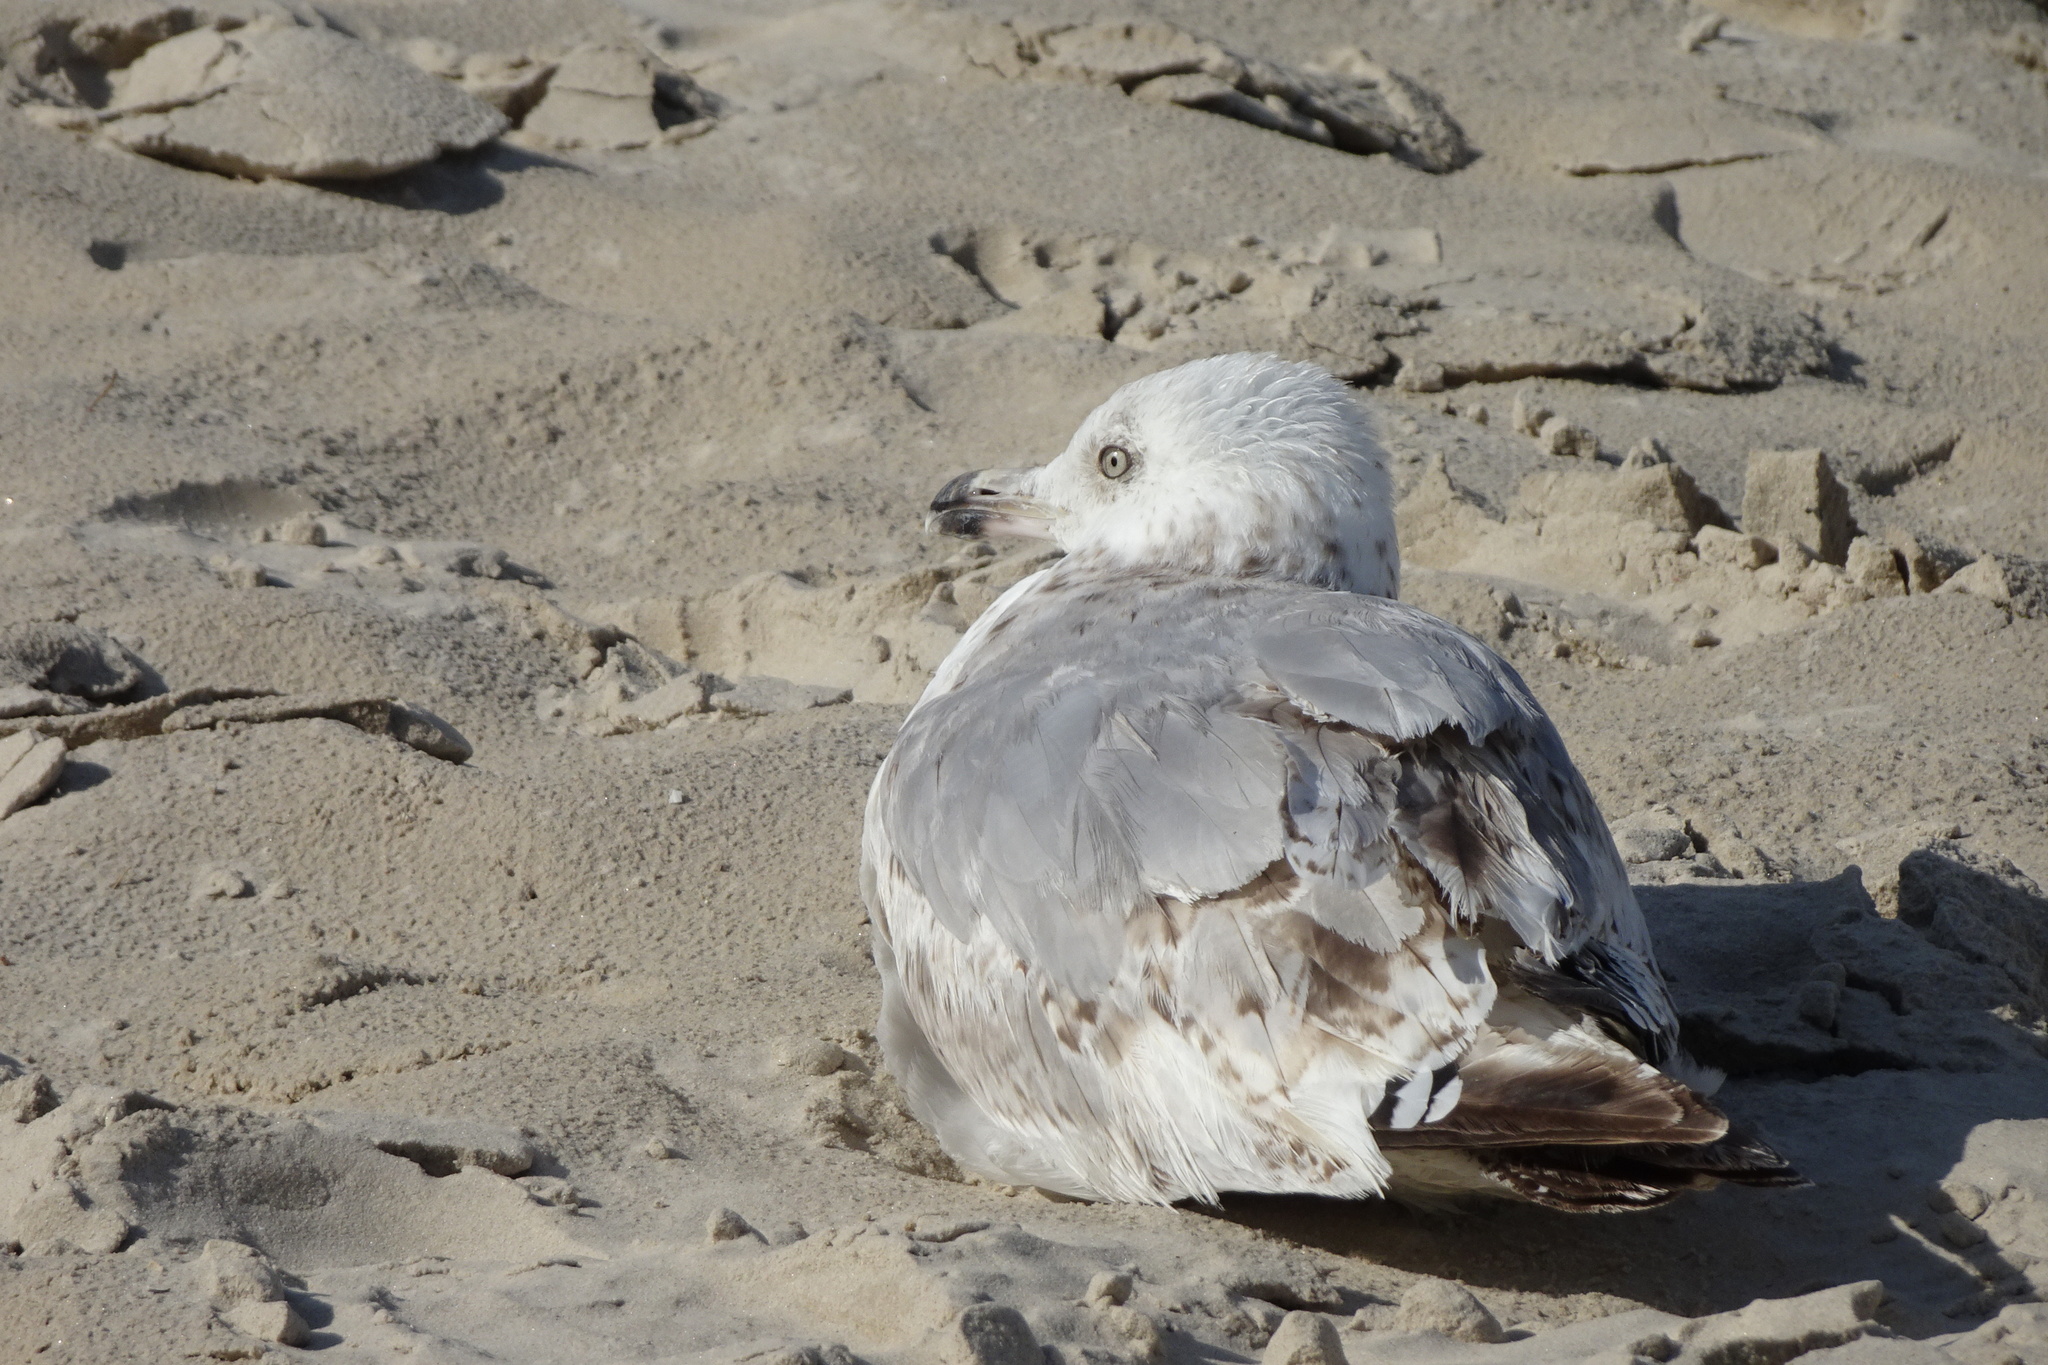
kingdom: Animalia
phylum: Chordata
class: Aves
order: Charadriiformes
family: Laridae
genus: Larus
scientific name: Larus argentatus
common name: Herring gull
